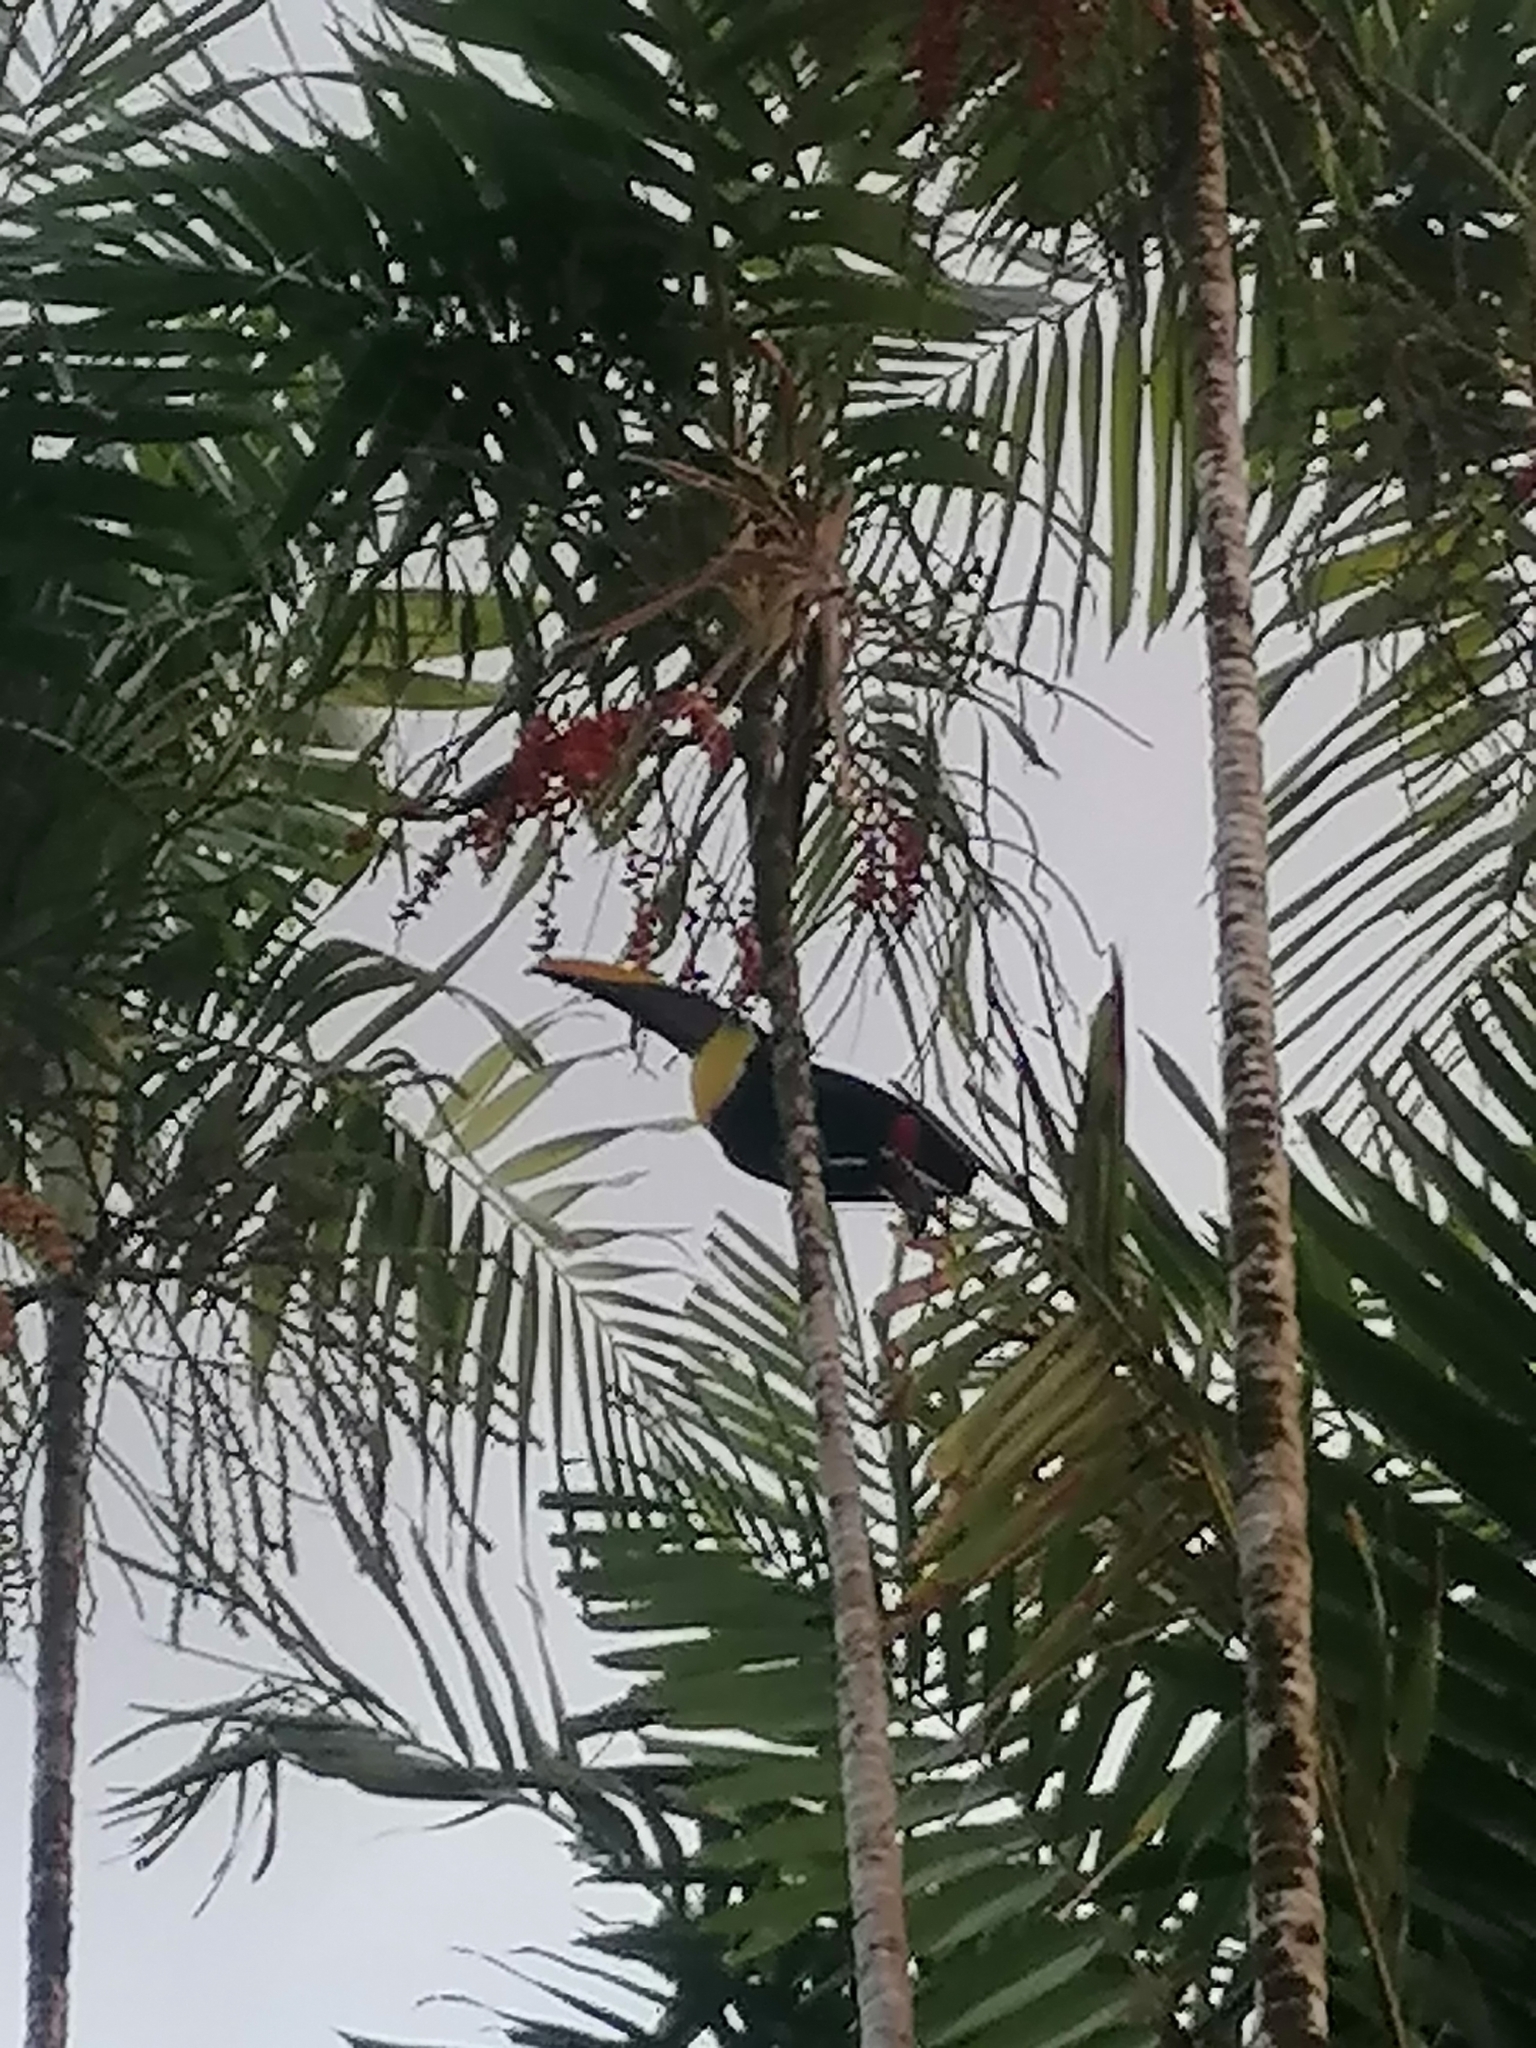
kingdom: Animalia
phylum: Chordata
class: Aves
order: Piciformes
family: Ramphastidae
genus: Ramphastos
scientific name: Ramphastos ambiguus
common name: Yellow-throated toucan
